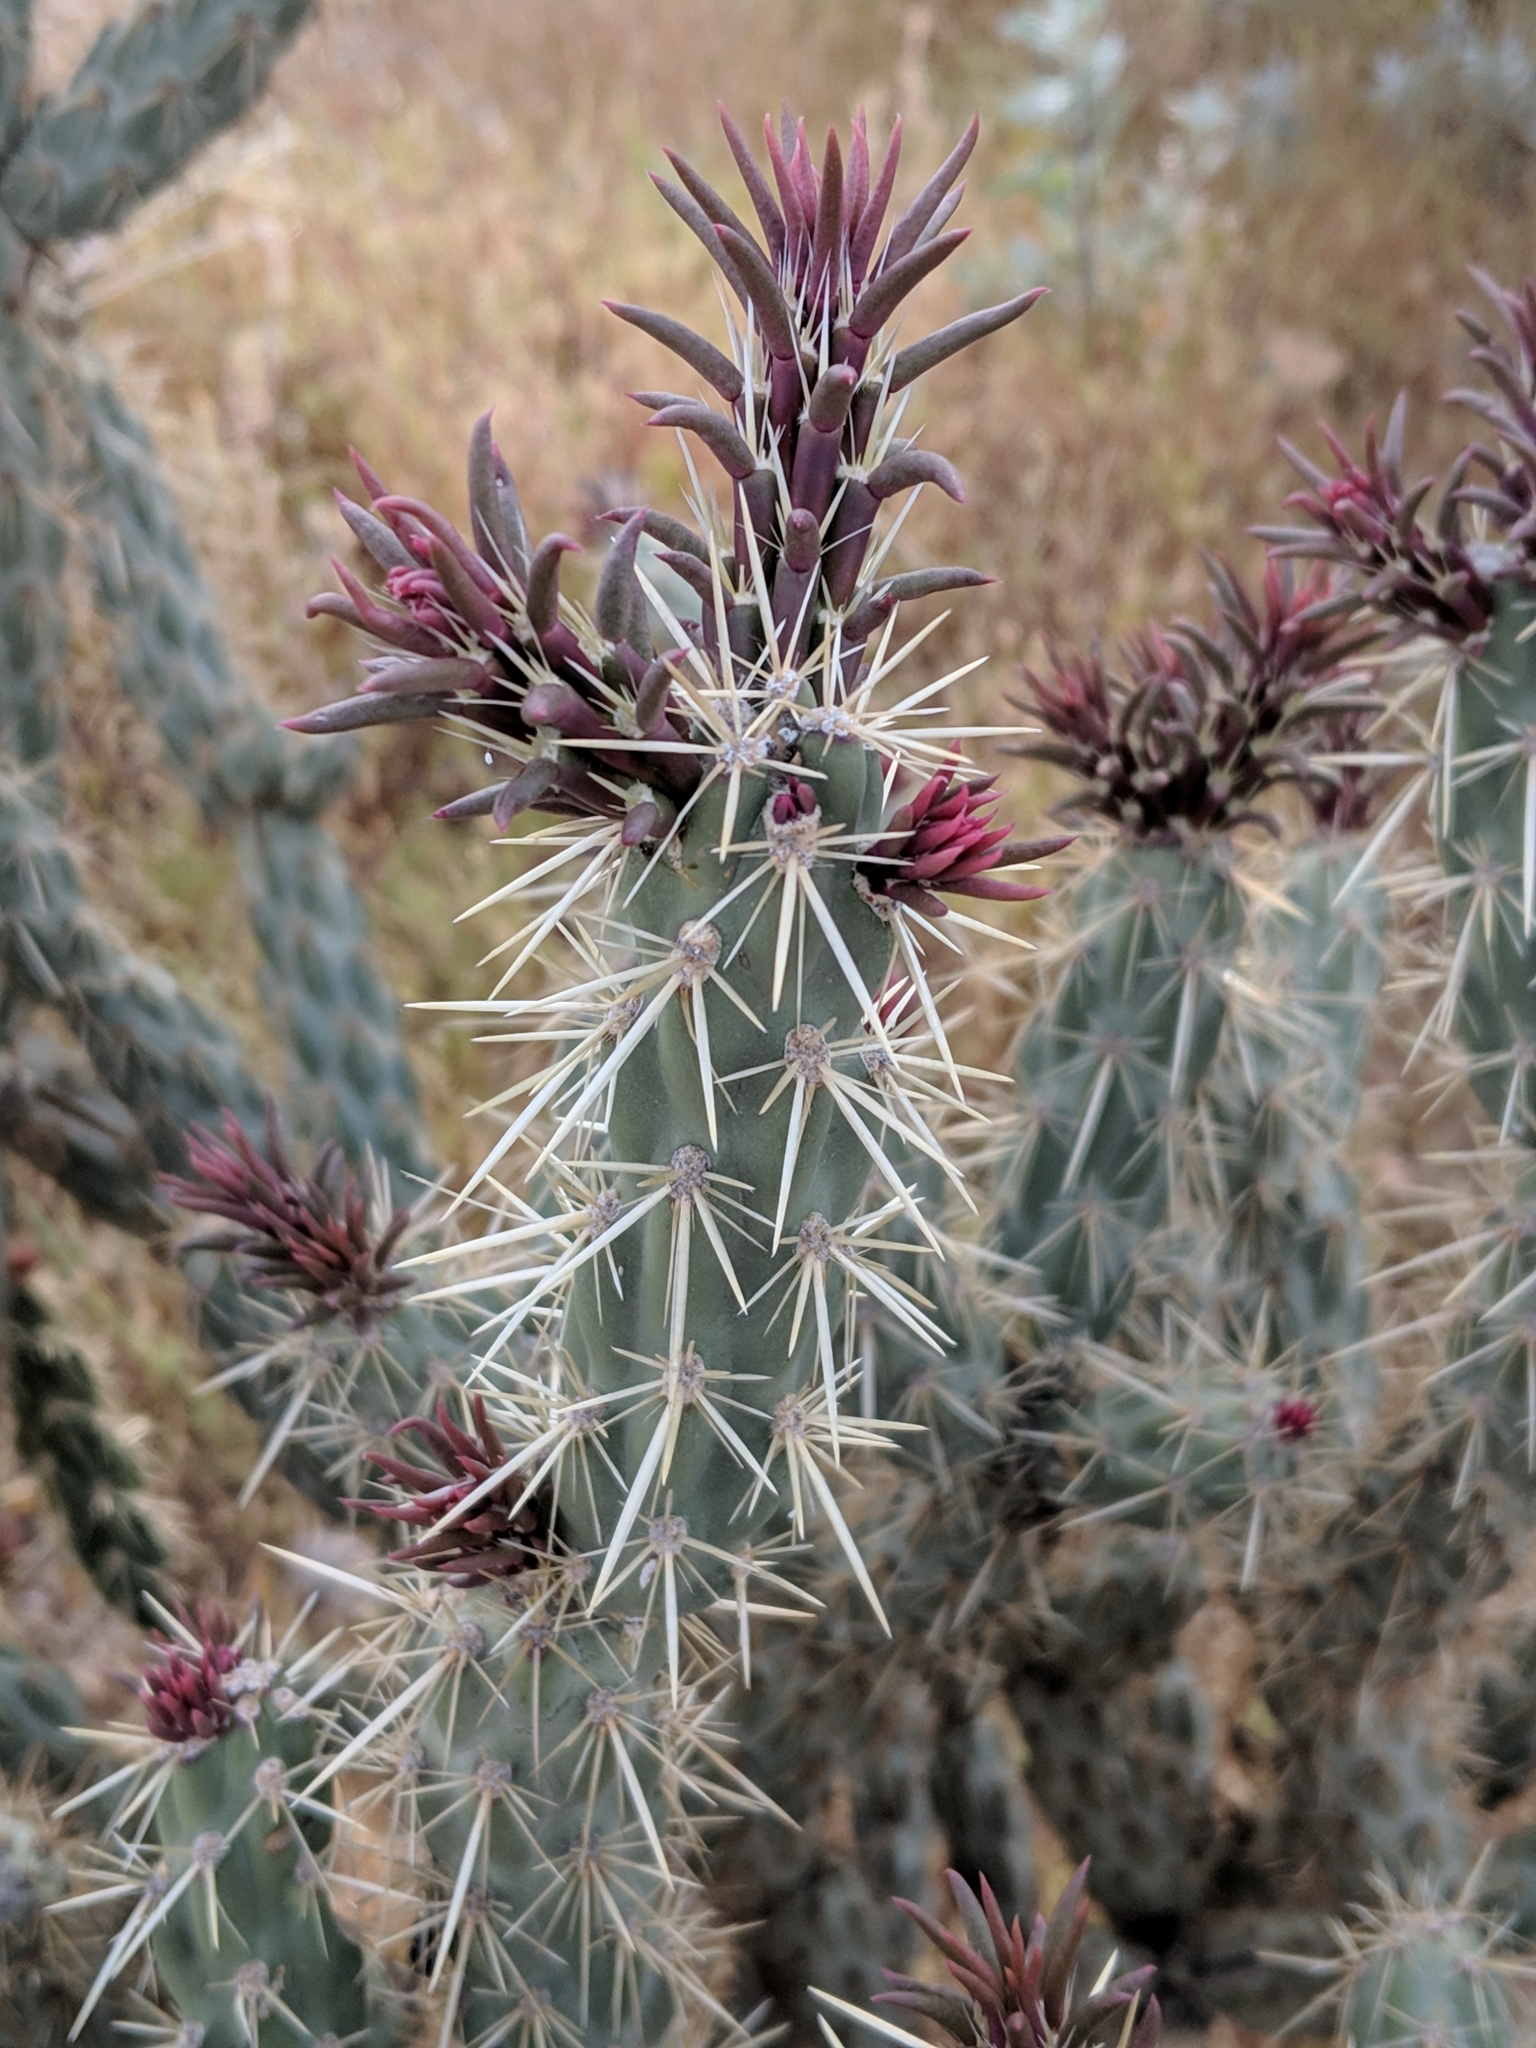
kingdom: Plantae
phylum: Tracheophyta
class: Magnoliopsida
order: Caryophyllales
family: Cactaceae
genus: Cylindropuntia
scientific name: Cylindropuntia acanthocarpa
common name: Buckhorn cholla
